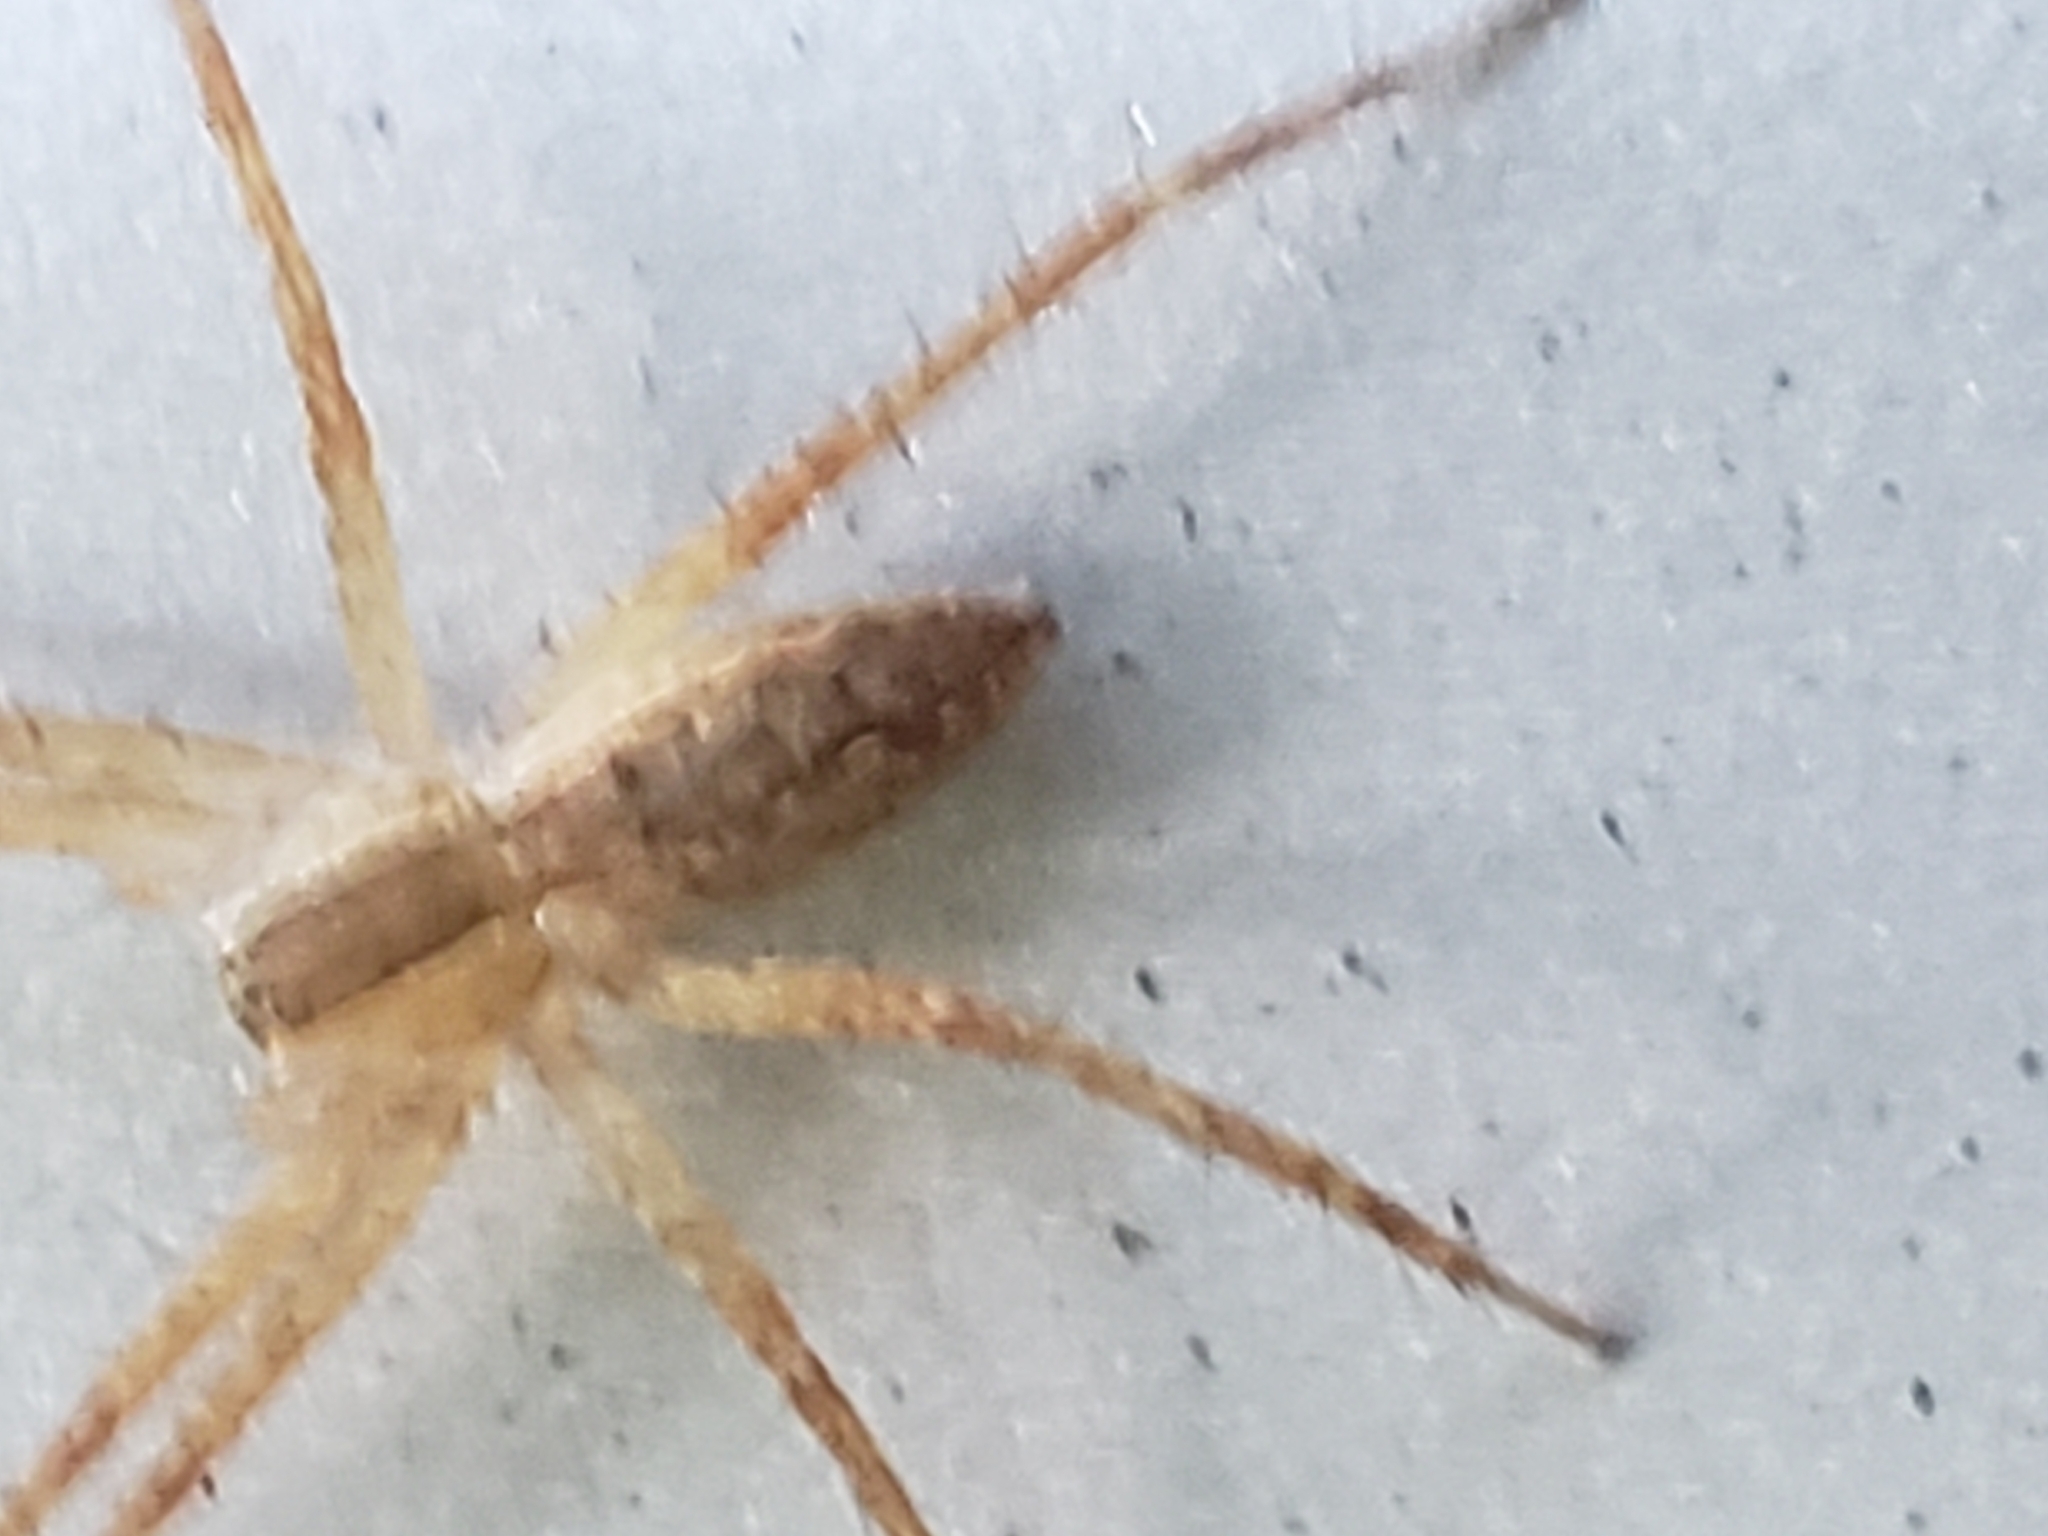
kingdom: Animalia
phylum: Arthropoda
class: Arachnida
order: Araneae
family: Pisauridae
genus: Pisaurina
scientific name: Pisaurina mira
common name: American nursery web spider
